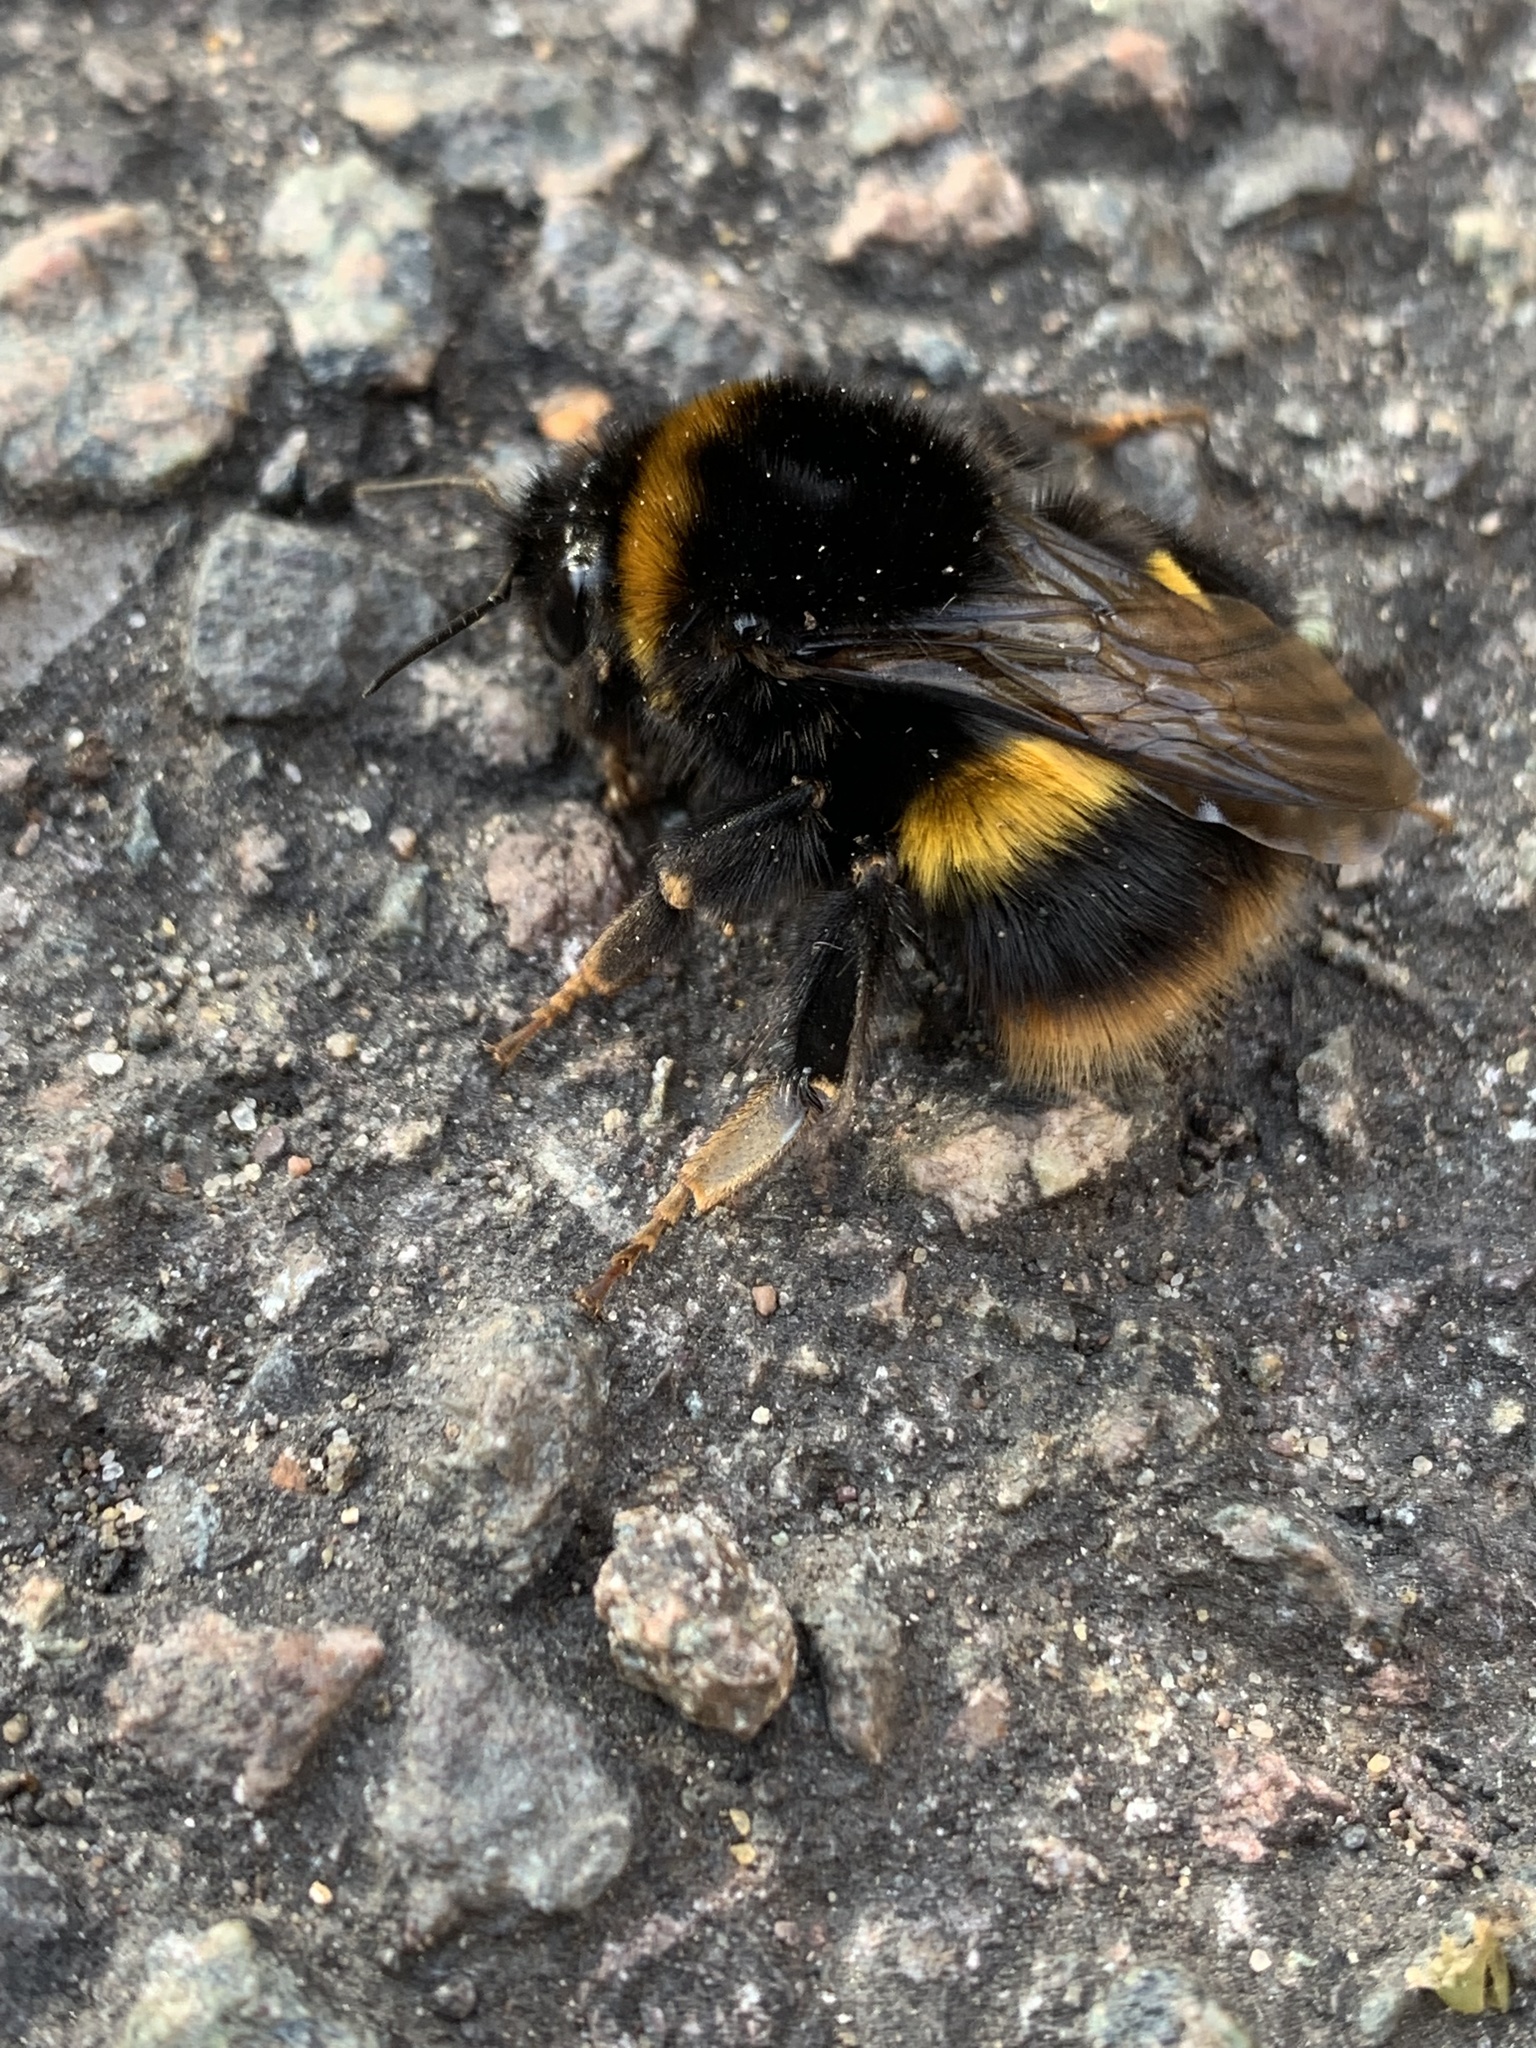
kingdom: Animalia
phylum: Arthropoda
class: Insecta
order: Hymenoptera
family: Apidae
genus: Bombus
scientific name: Bombus terrestris
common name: Buff-tailed bumblebee
